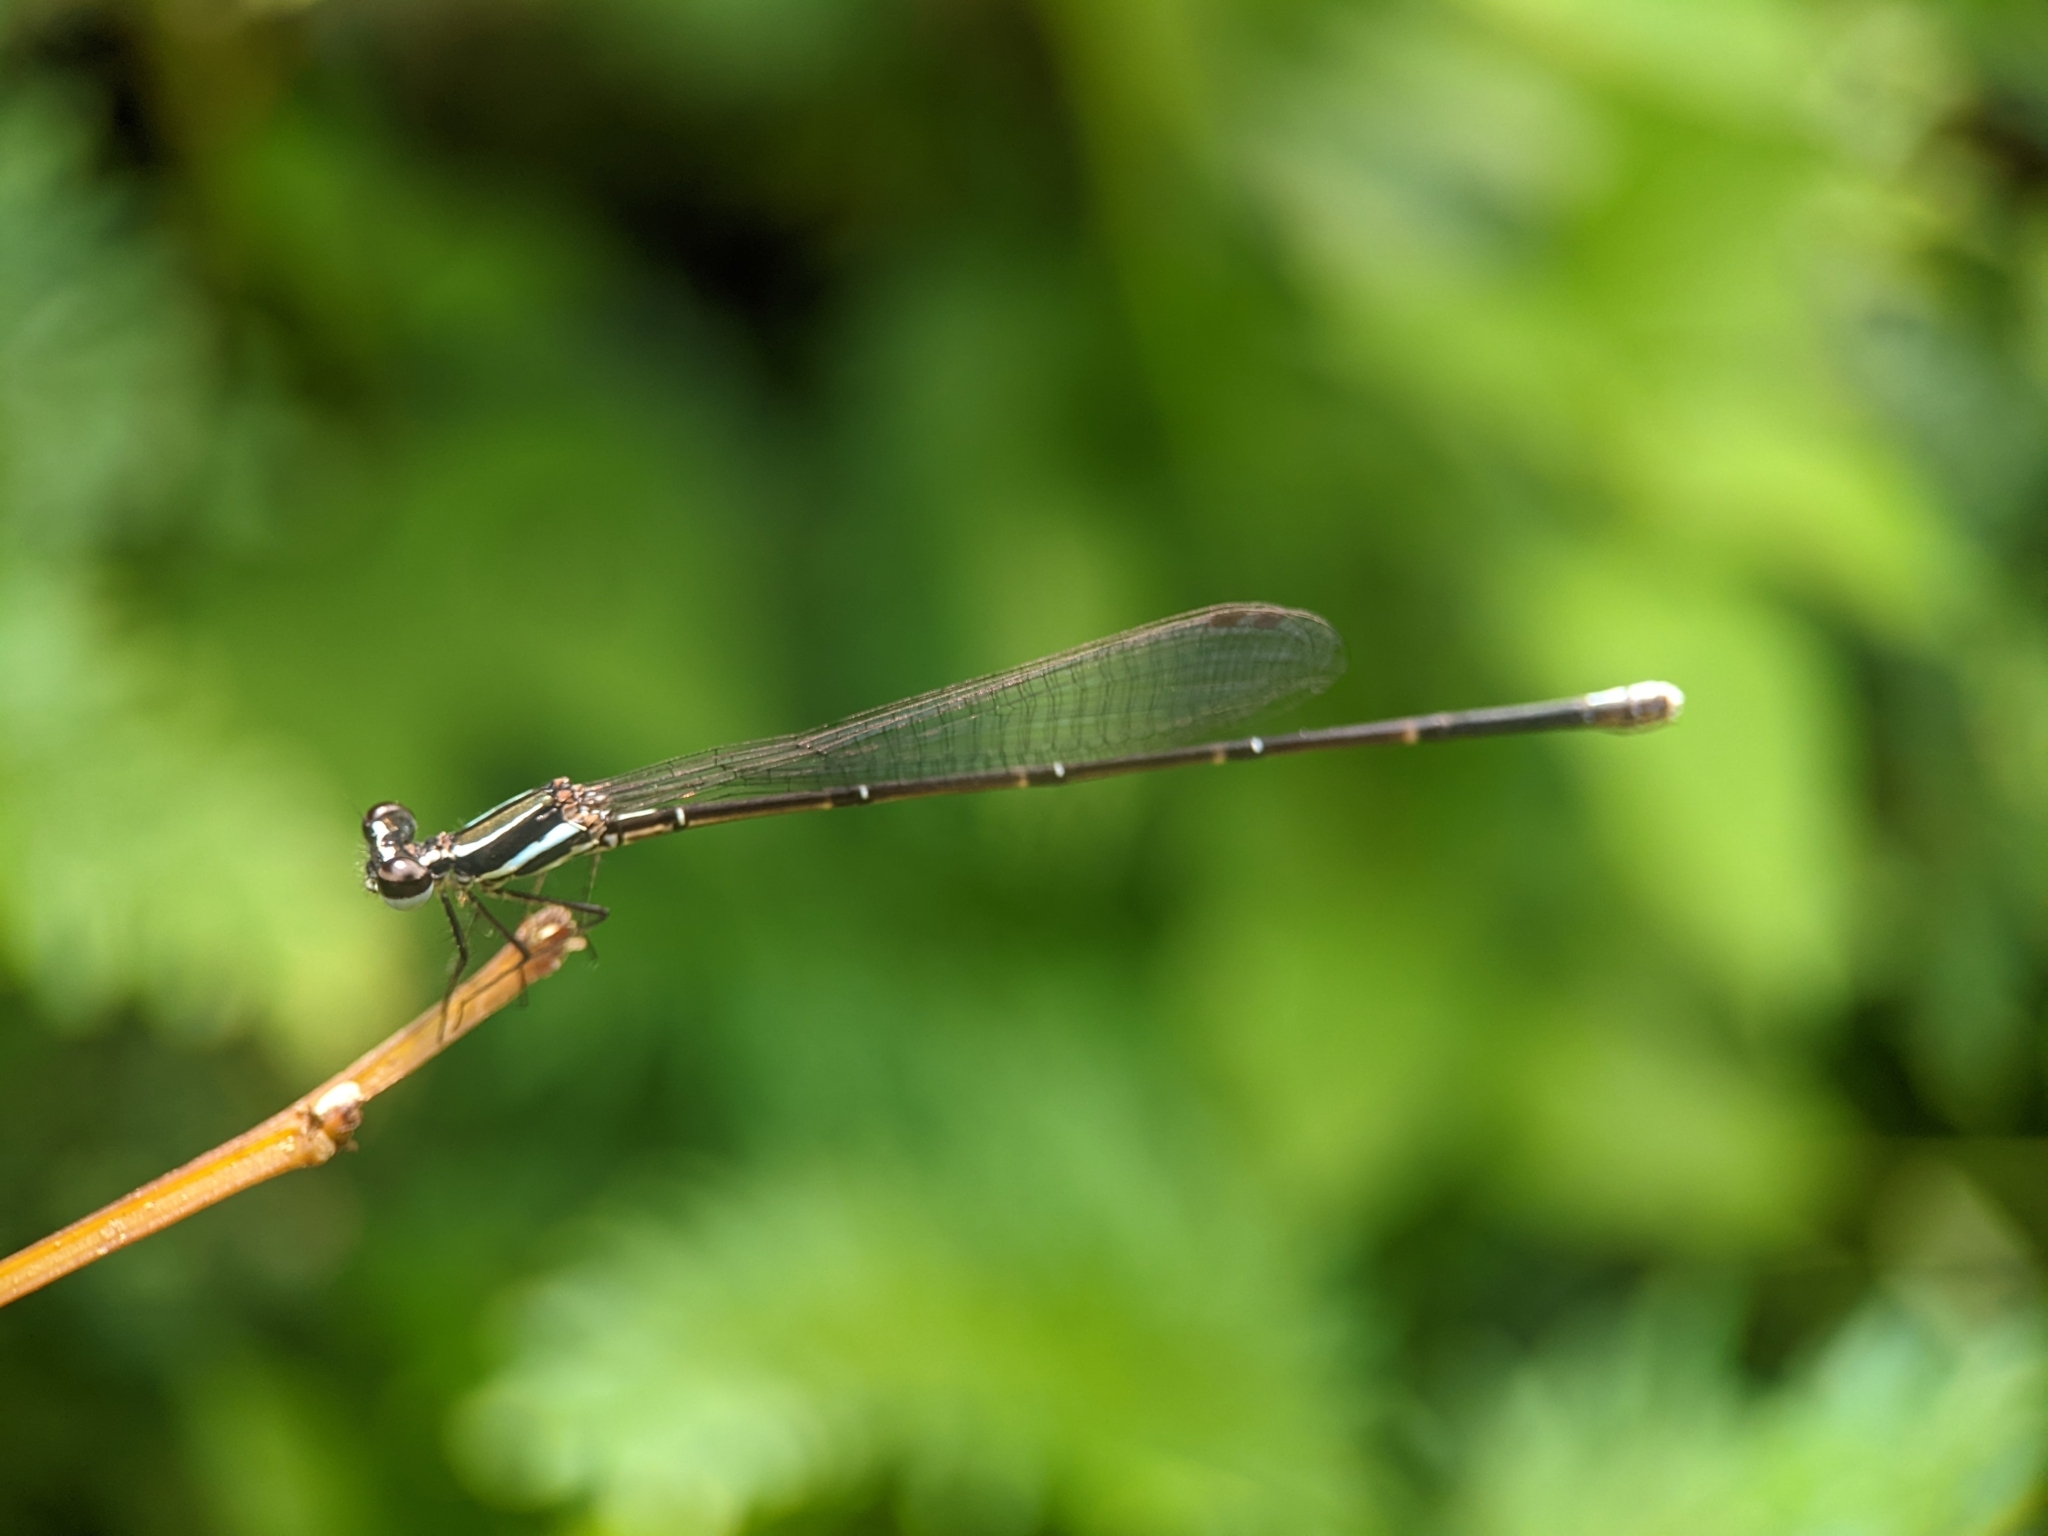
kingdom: Animalia
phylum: Arthropoda
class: Insecta
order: Odonata
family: Platycnemididae
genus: Prodasineura
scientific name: Prodasineura laidlawii
